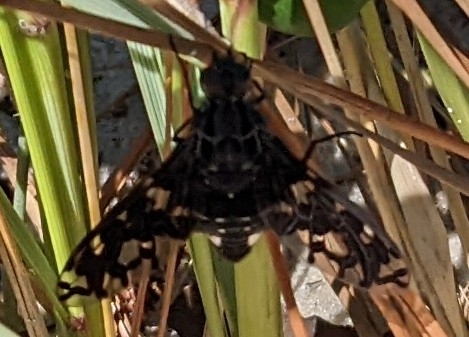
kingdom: Animalia
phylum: Arthropoda
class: Insecta
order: Diptera
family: Bombyliidae
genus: Xenox
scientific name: Xenox tigrinus
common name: Tiger bee fly
